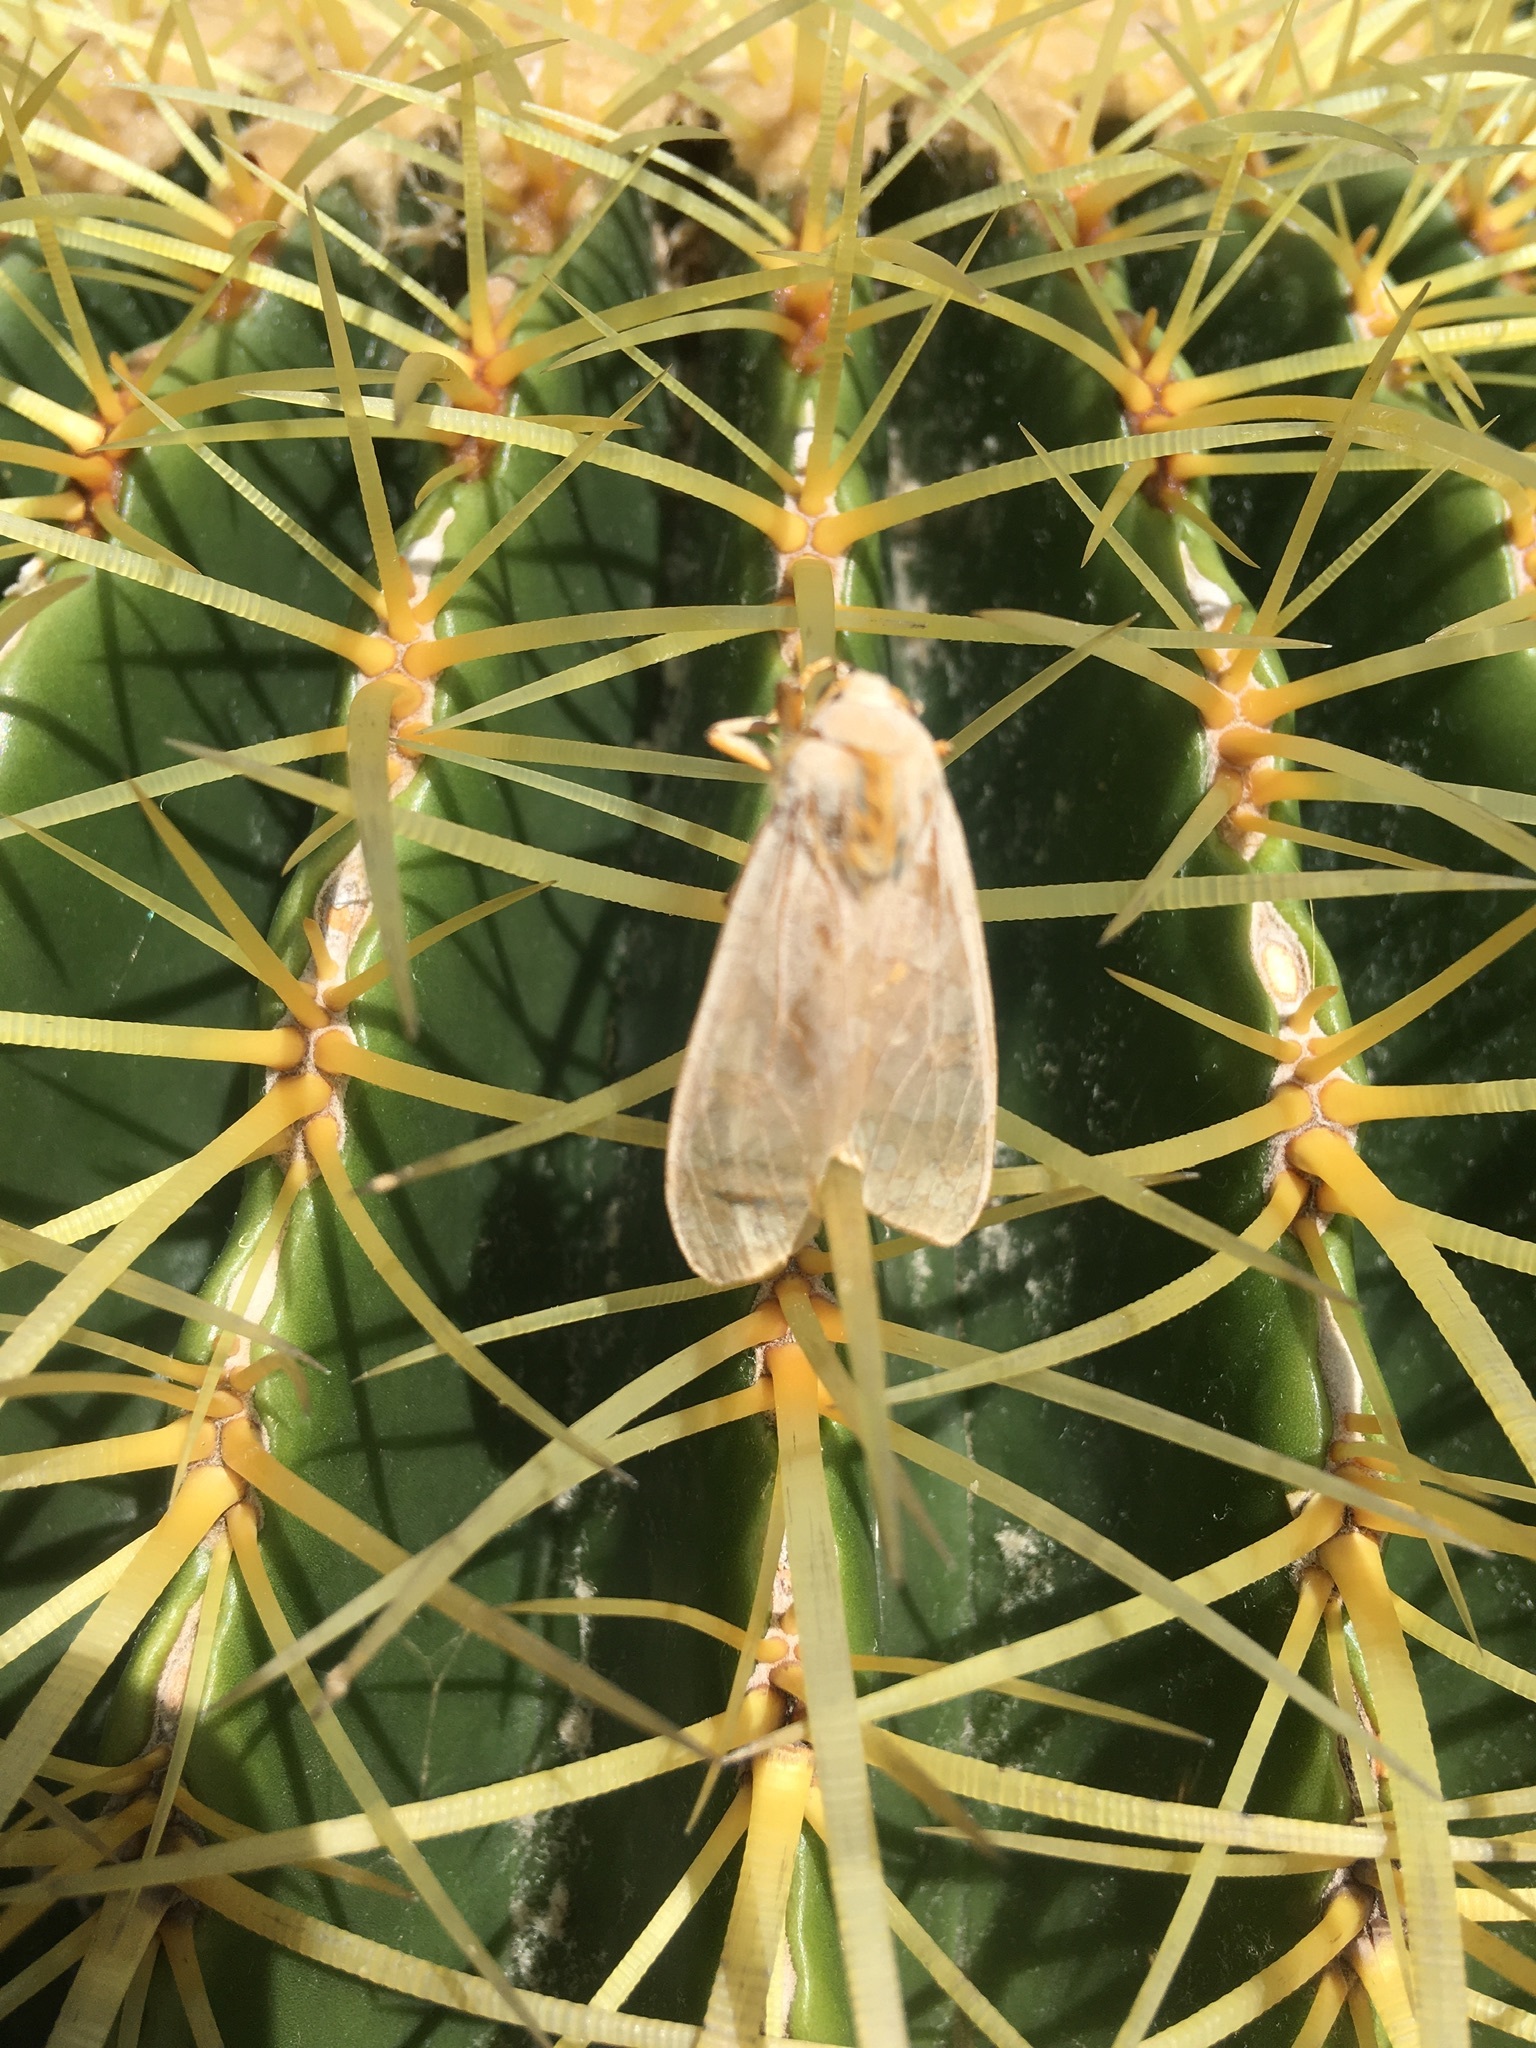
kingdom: Animalia
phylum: Arthropoda
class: Insecta
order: Lepidoptera
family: Erebidae
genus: Halysidota
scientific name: Halysidota
